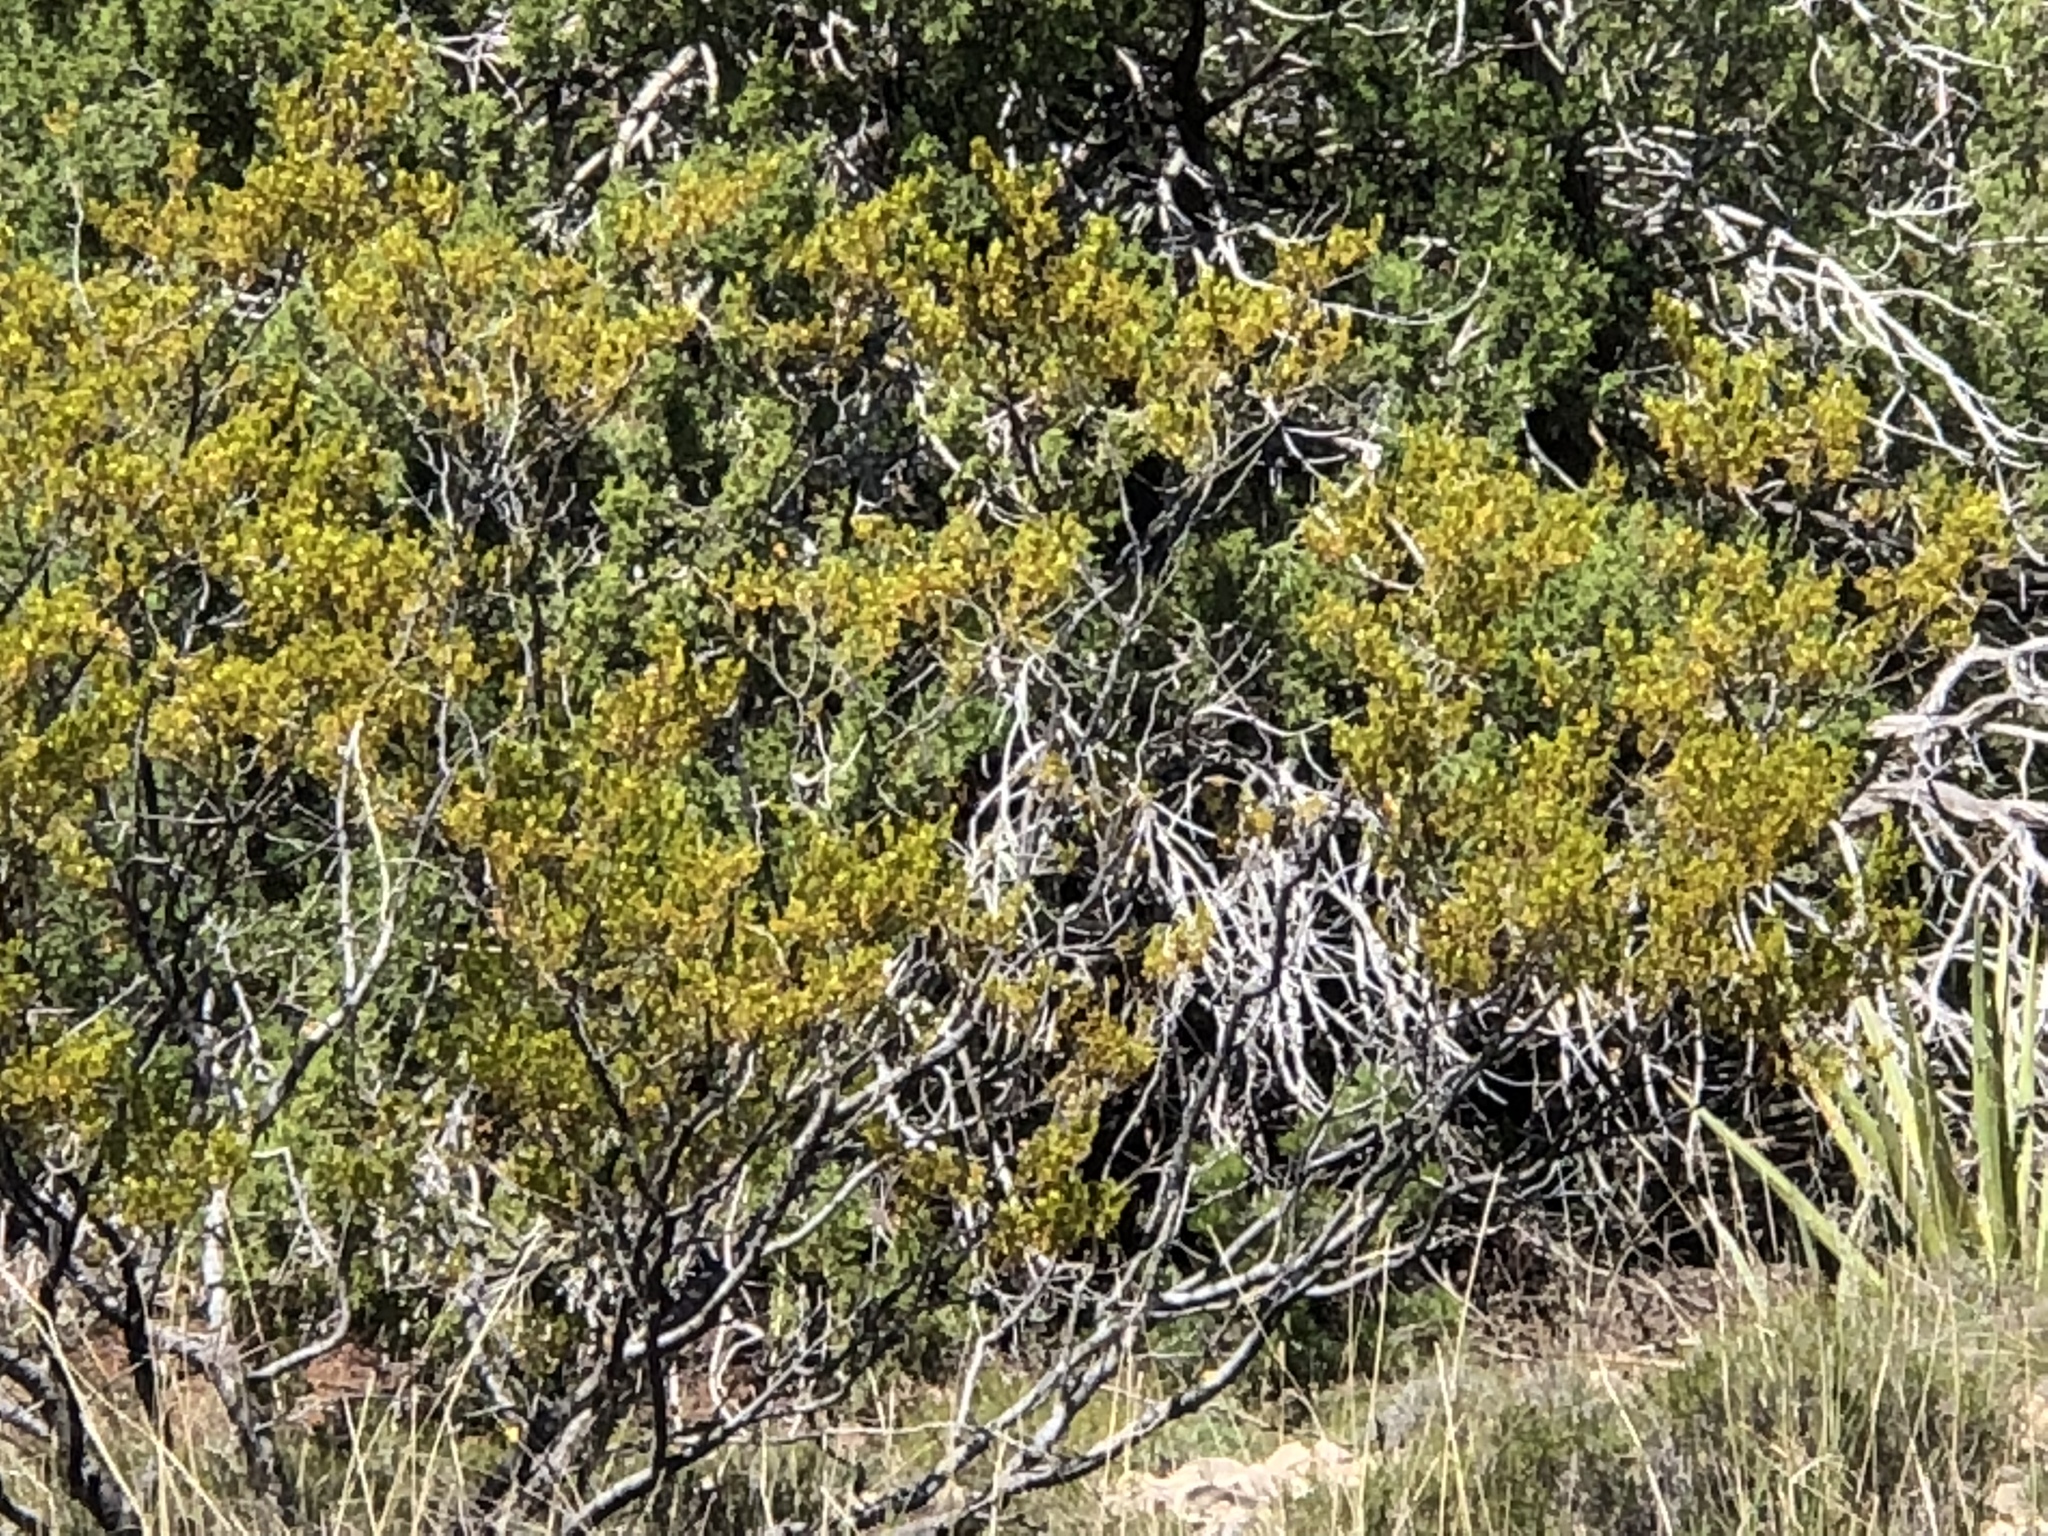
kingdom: Plantae
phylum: Tracheophyta
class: Magnoliopsida
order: Zygophyllales
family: Zygophyllaceae
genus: Larrea
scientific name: Larrea tridentata
